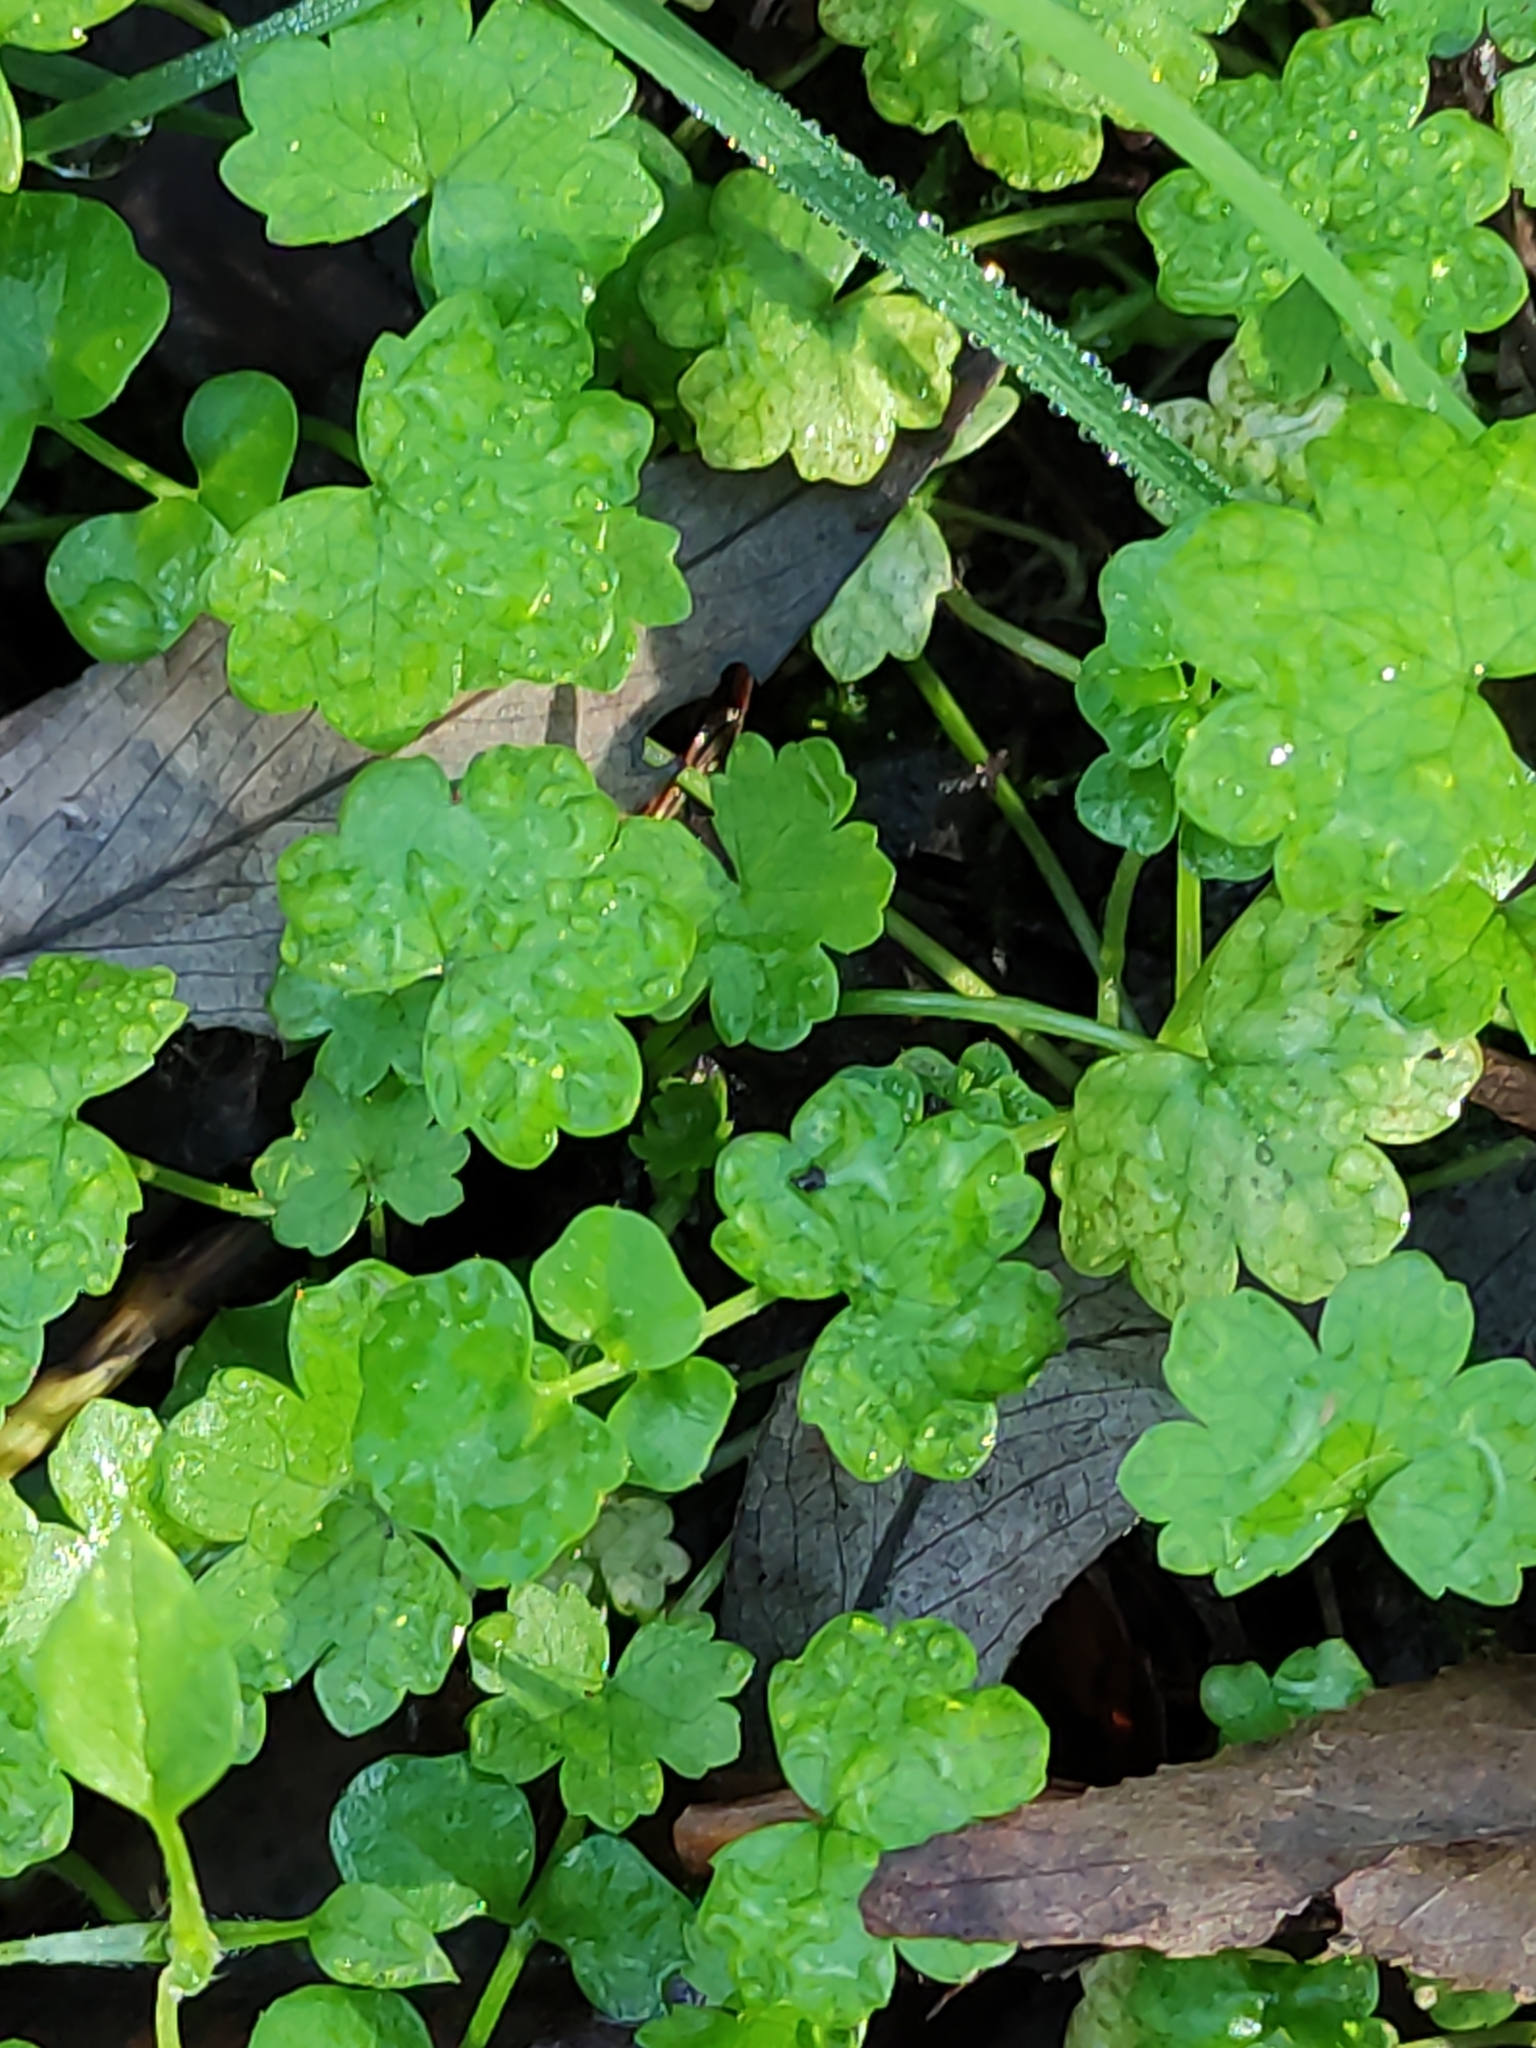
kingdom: Plantae
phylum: Tracheophyta
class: Magnoliopsida
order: Apiales
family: Araliaceae
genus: Hydrocotyle
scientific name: Hydrocotyle heteromeria
